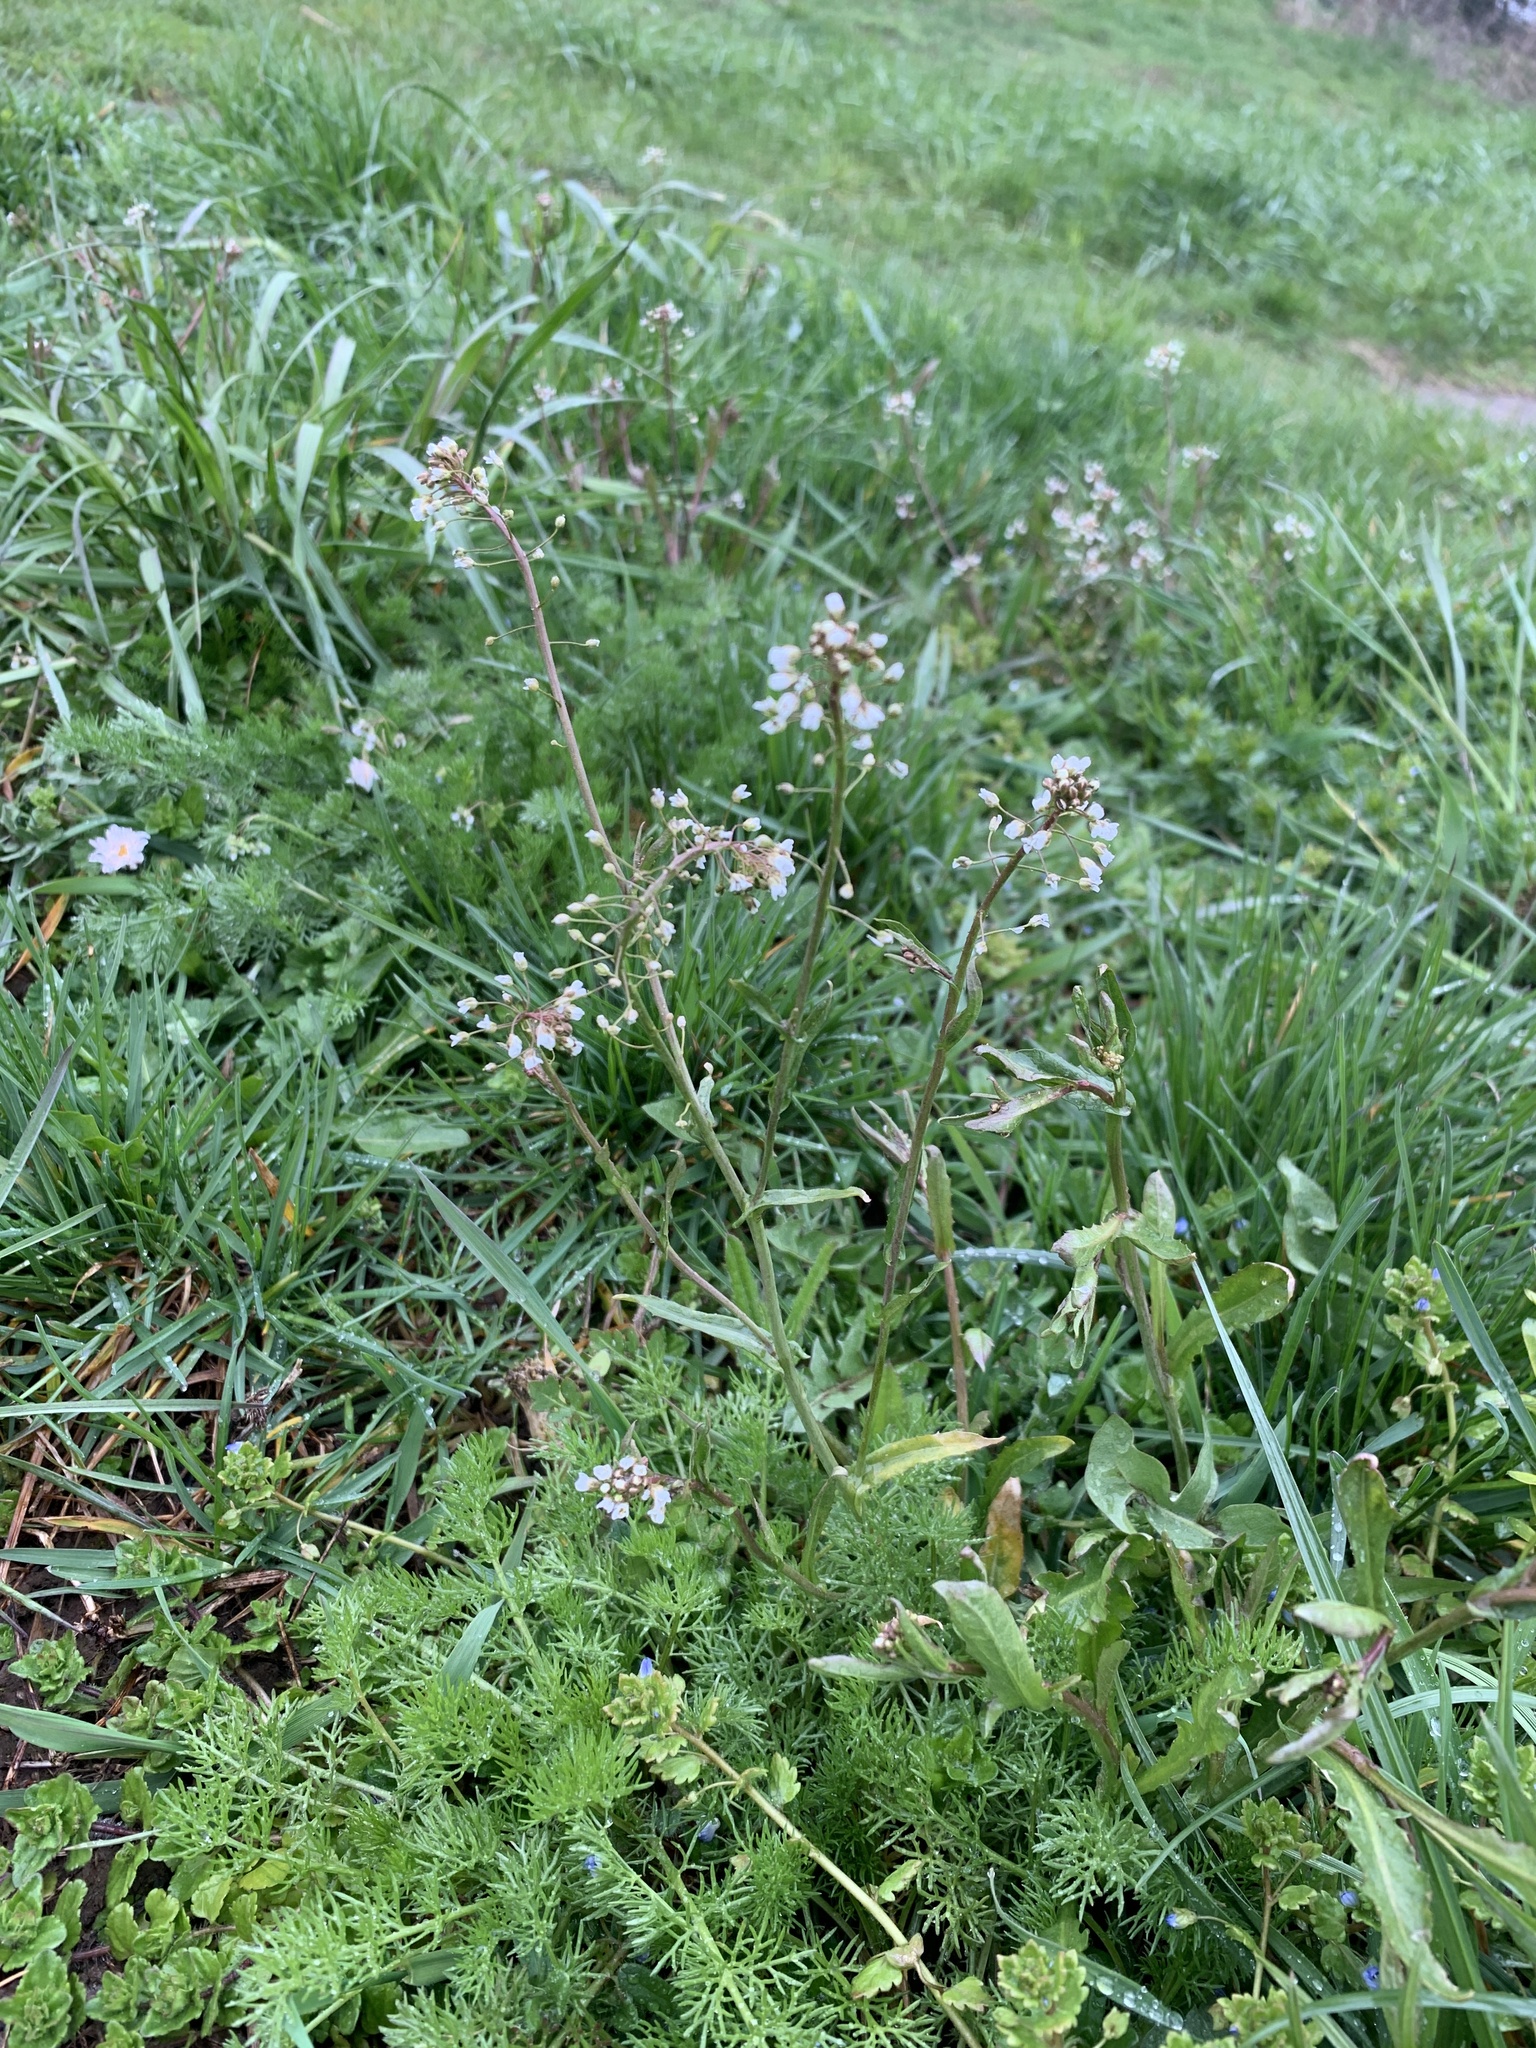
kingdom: Plantae
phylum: Tracheophyta
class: Magnoliopsida
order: Brassicales
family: Brassicaceae
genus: Capsella
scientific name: Capsella bursa-pastoris
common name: Shepherd's purse
